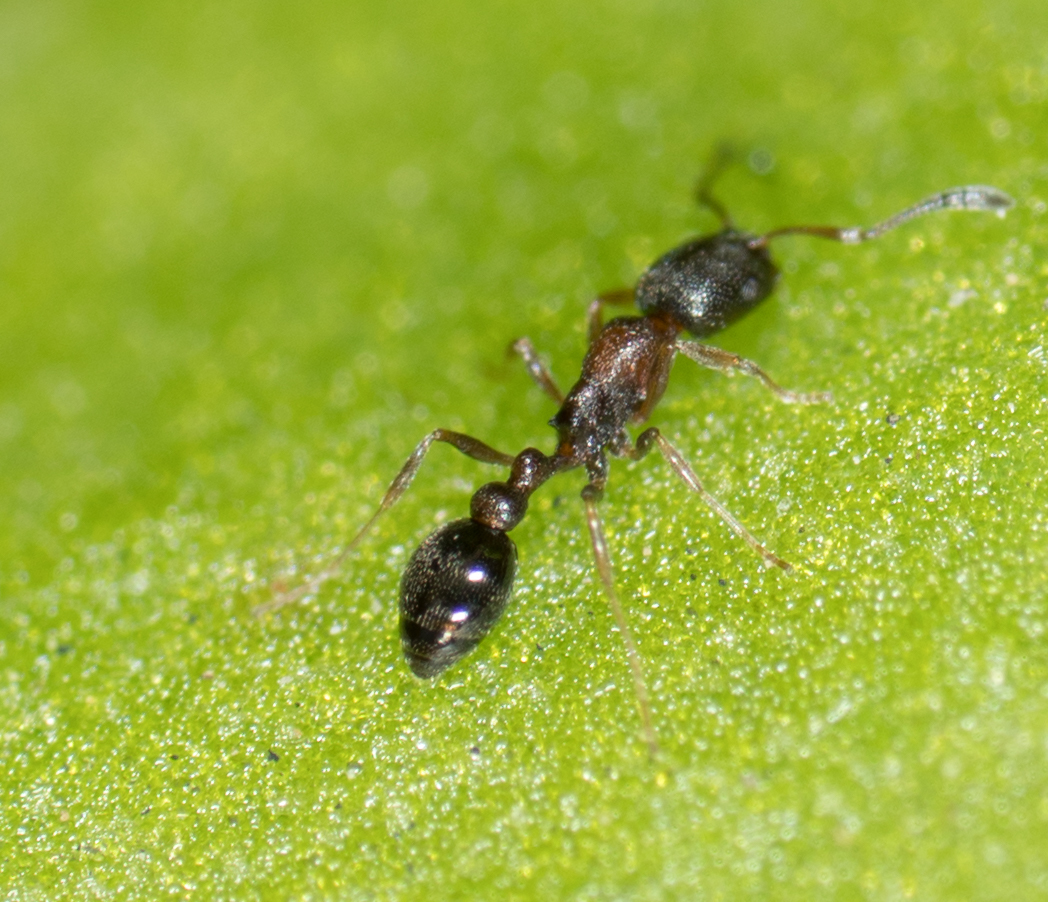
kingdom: Animalia
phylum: Arthropoda
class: Insecta
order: Hymenoptera
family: Formicidae
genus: Cardiocondyla
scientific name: Cardiocondyla mauritanica
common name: Sneaking ant
